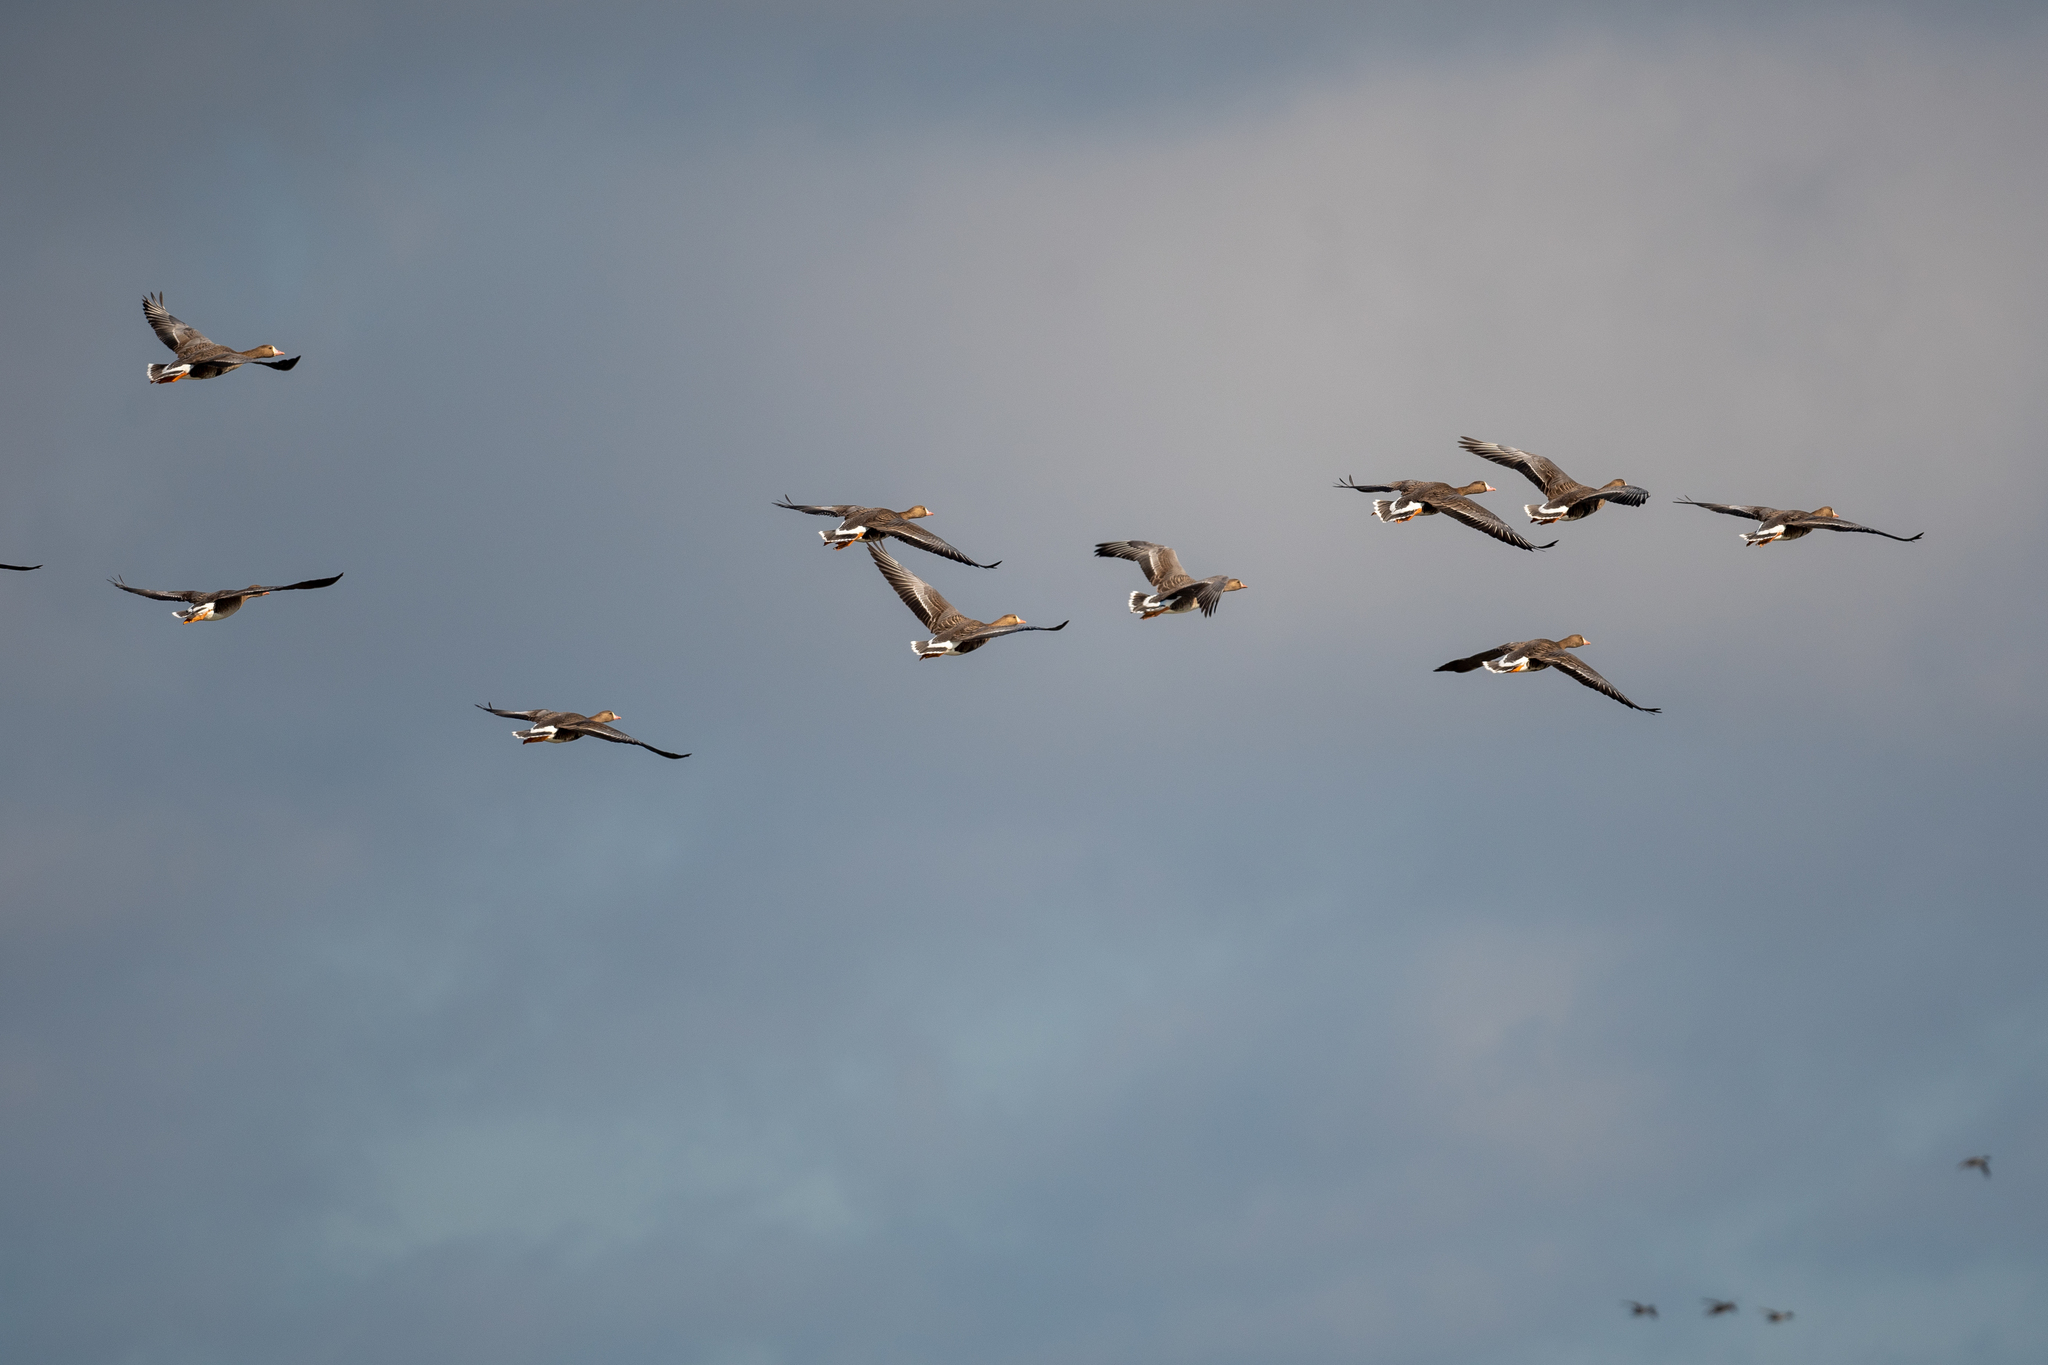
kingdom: Animalia
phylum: Chordata
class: Aves
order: Anseriformes
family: Anatidae
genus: Anser
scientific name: Anser albifrons
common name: Greater white-fronted goose
